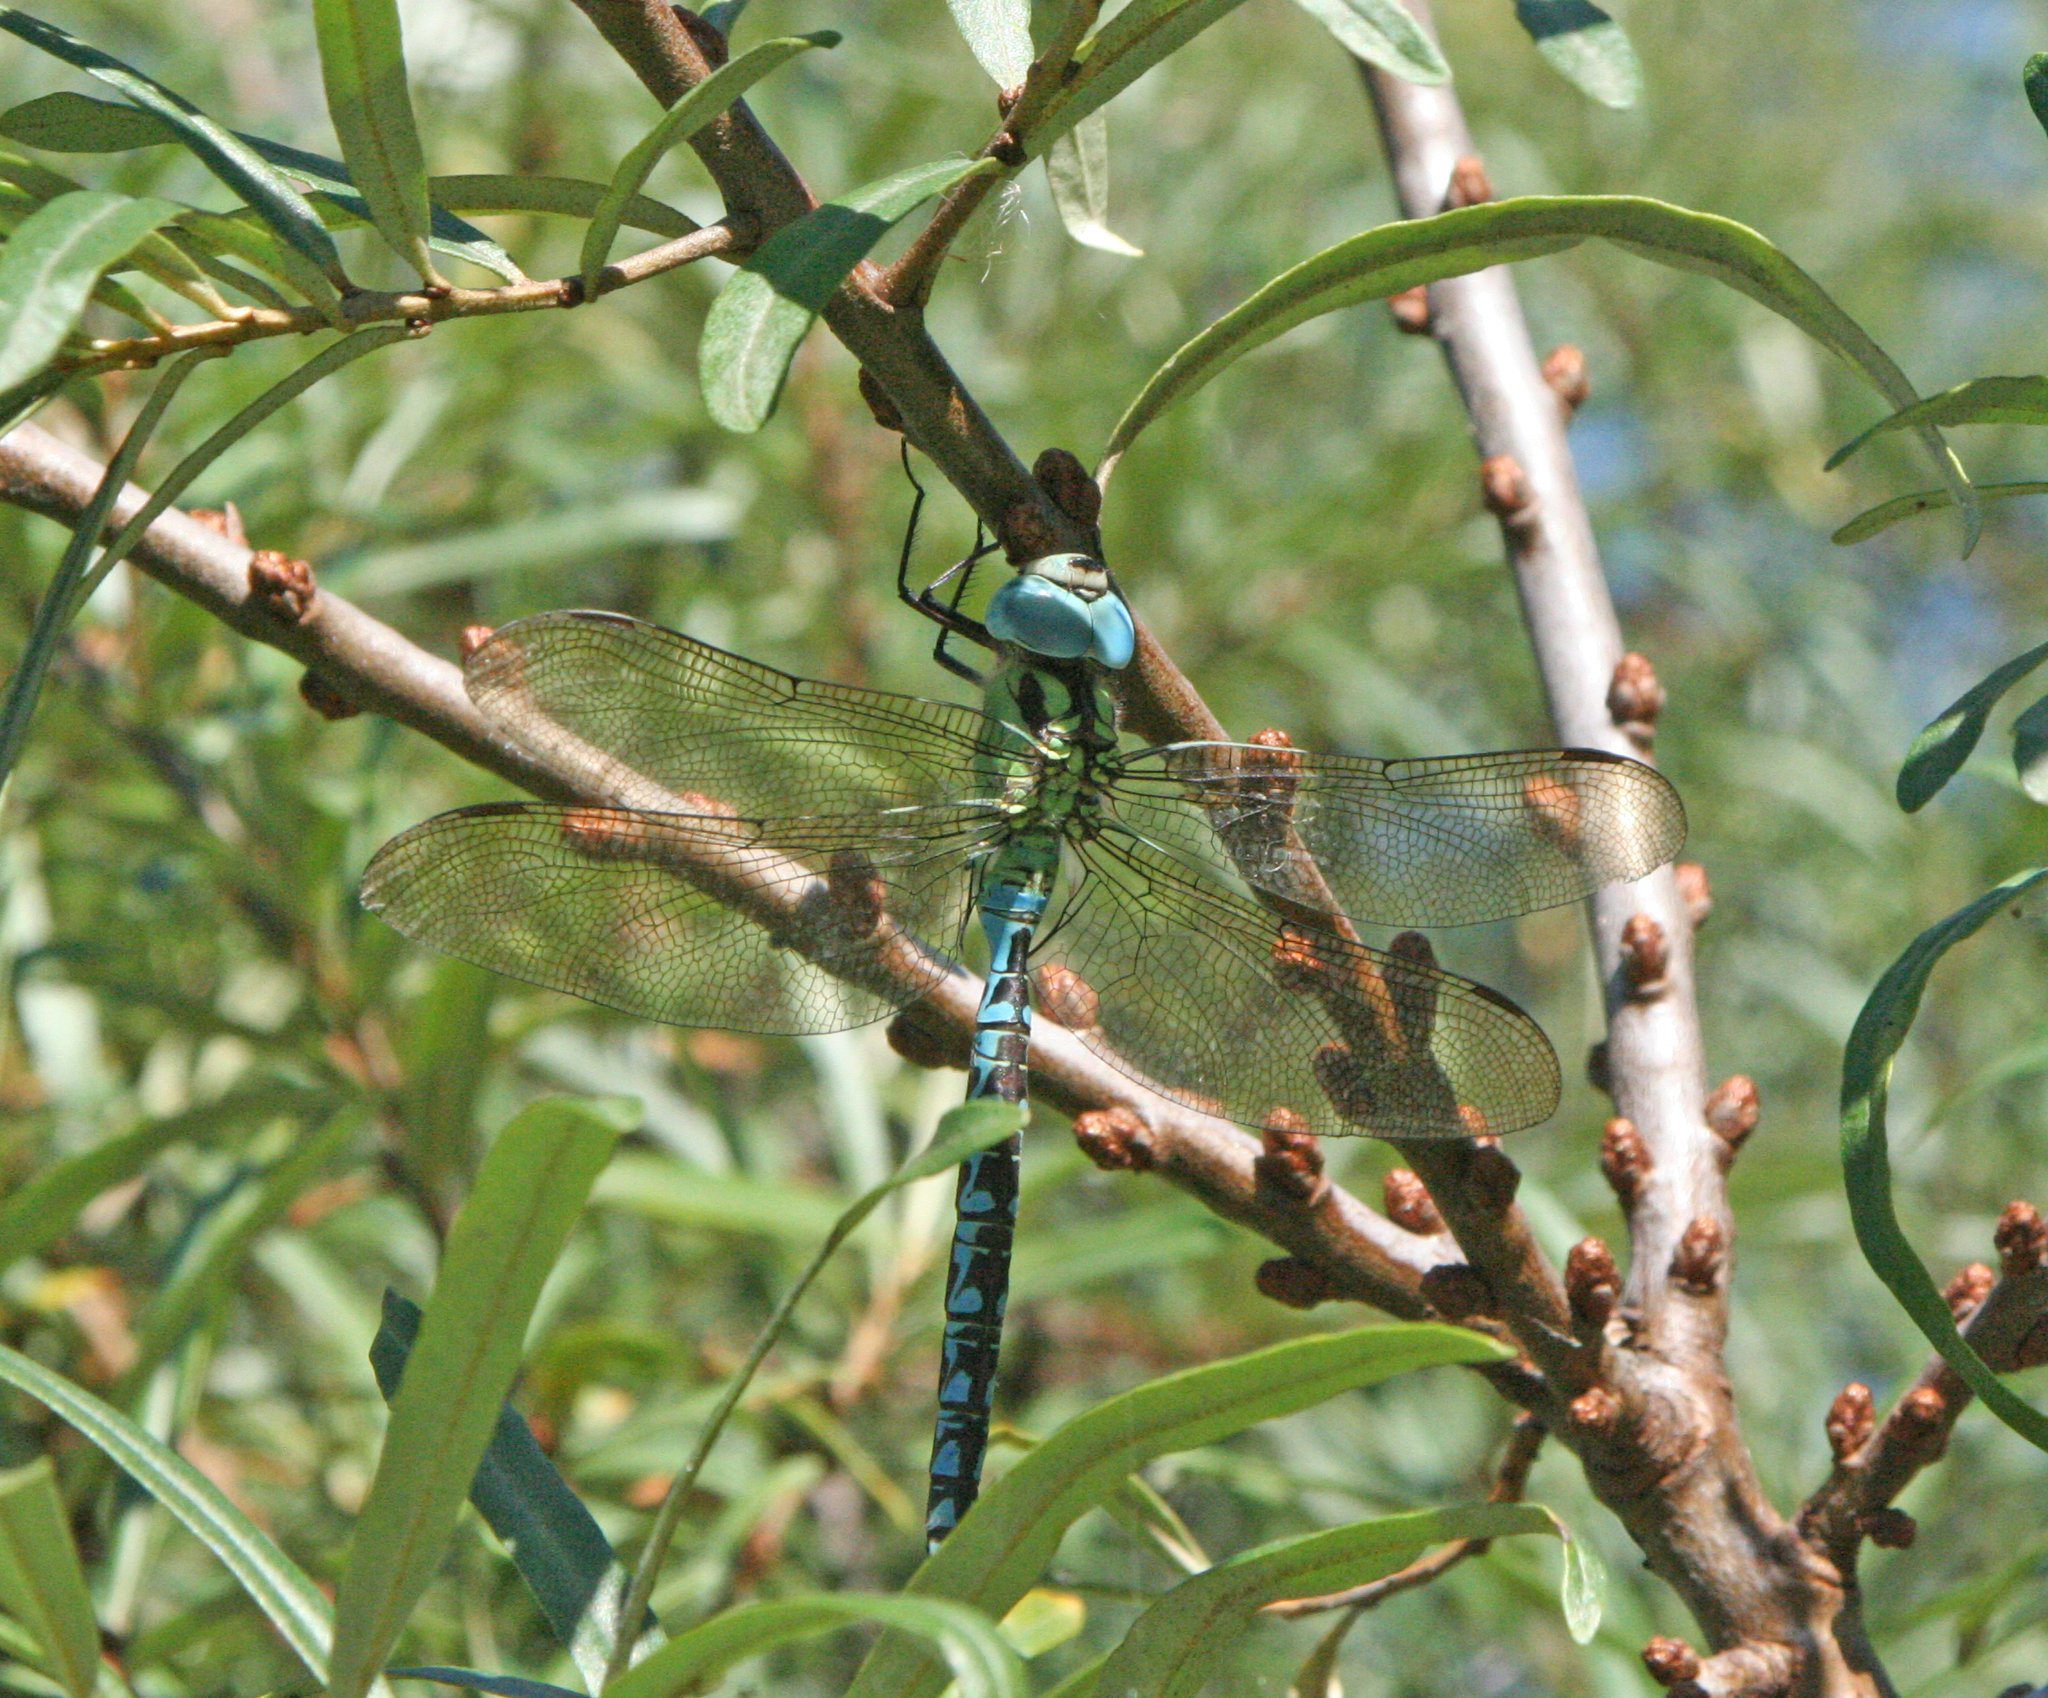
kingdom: Animalia
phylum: Arthropoda
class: Insecta
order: Odonata
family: Aeshnidae
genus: Aeshna
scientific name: Aeshna viridis
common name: Green hawker
